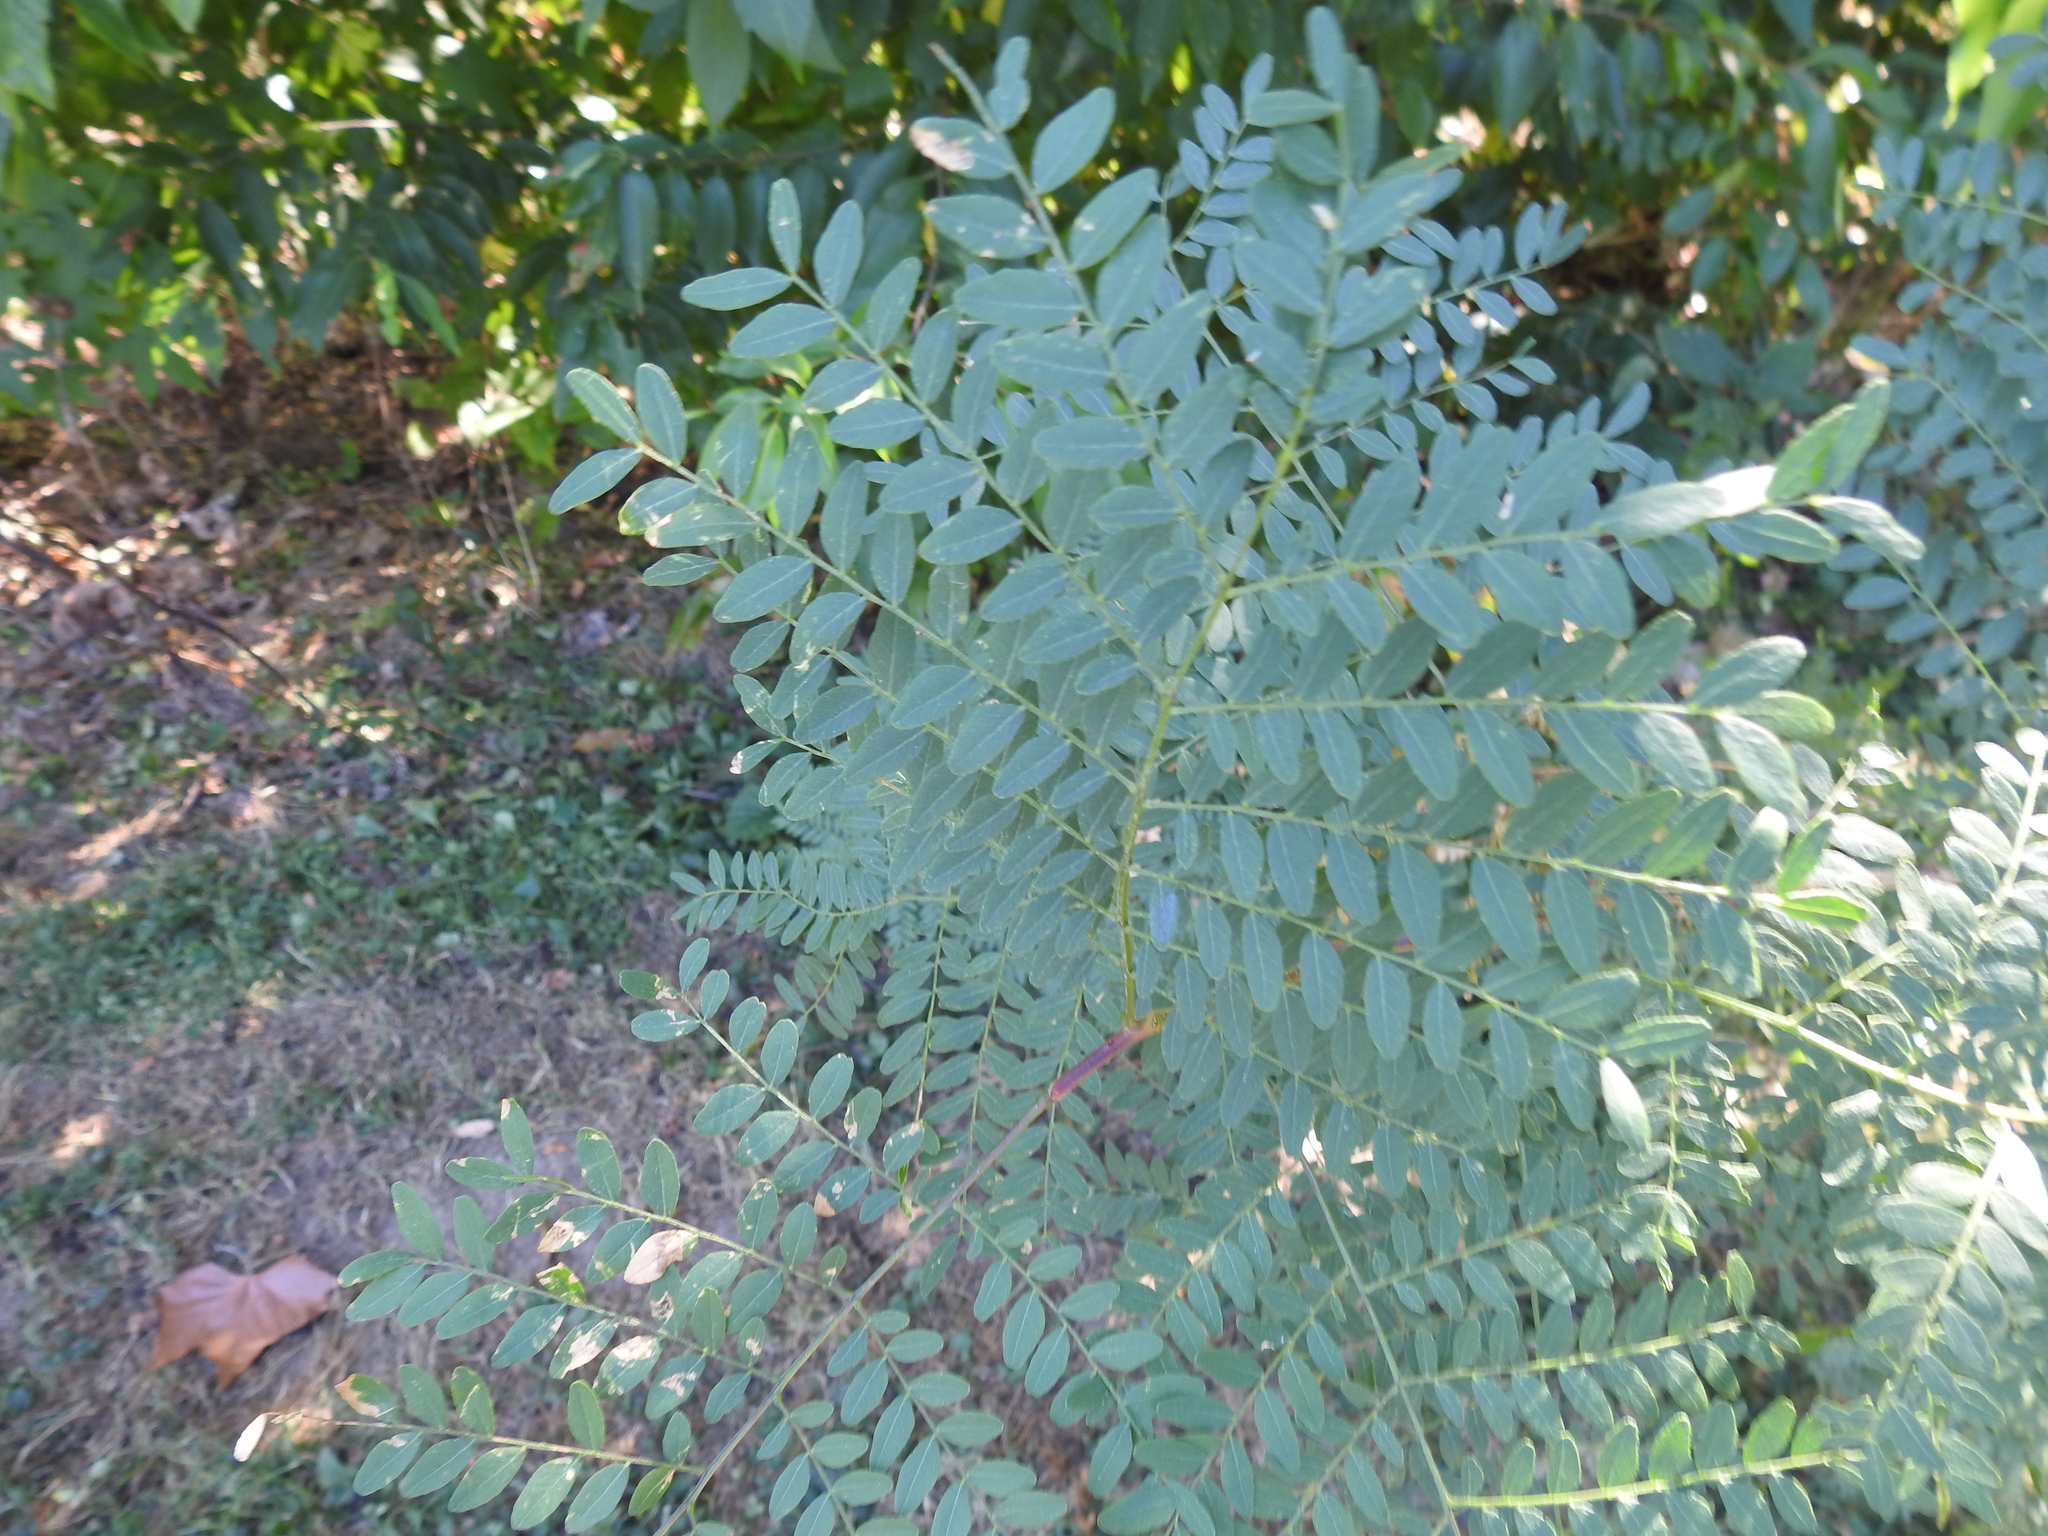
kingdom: Plantae
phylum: Tracheophyta
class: Magnoliopsida
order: Fabales
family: Fabaceae
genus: Gleditsia
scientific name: Gleditsia triacanthos
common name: Common honeylocust
